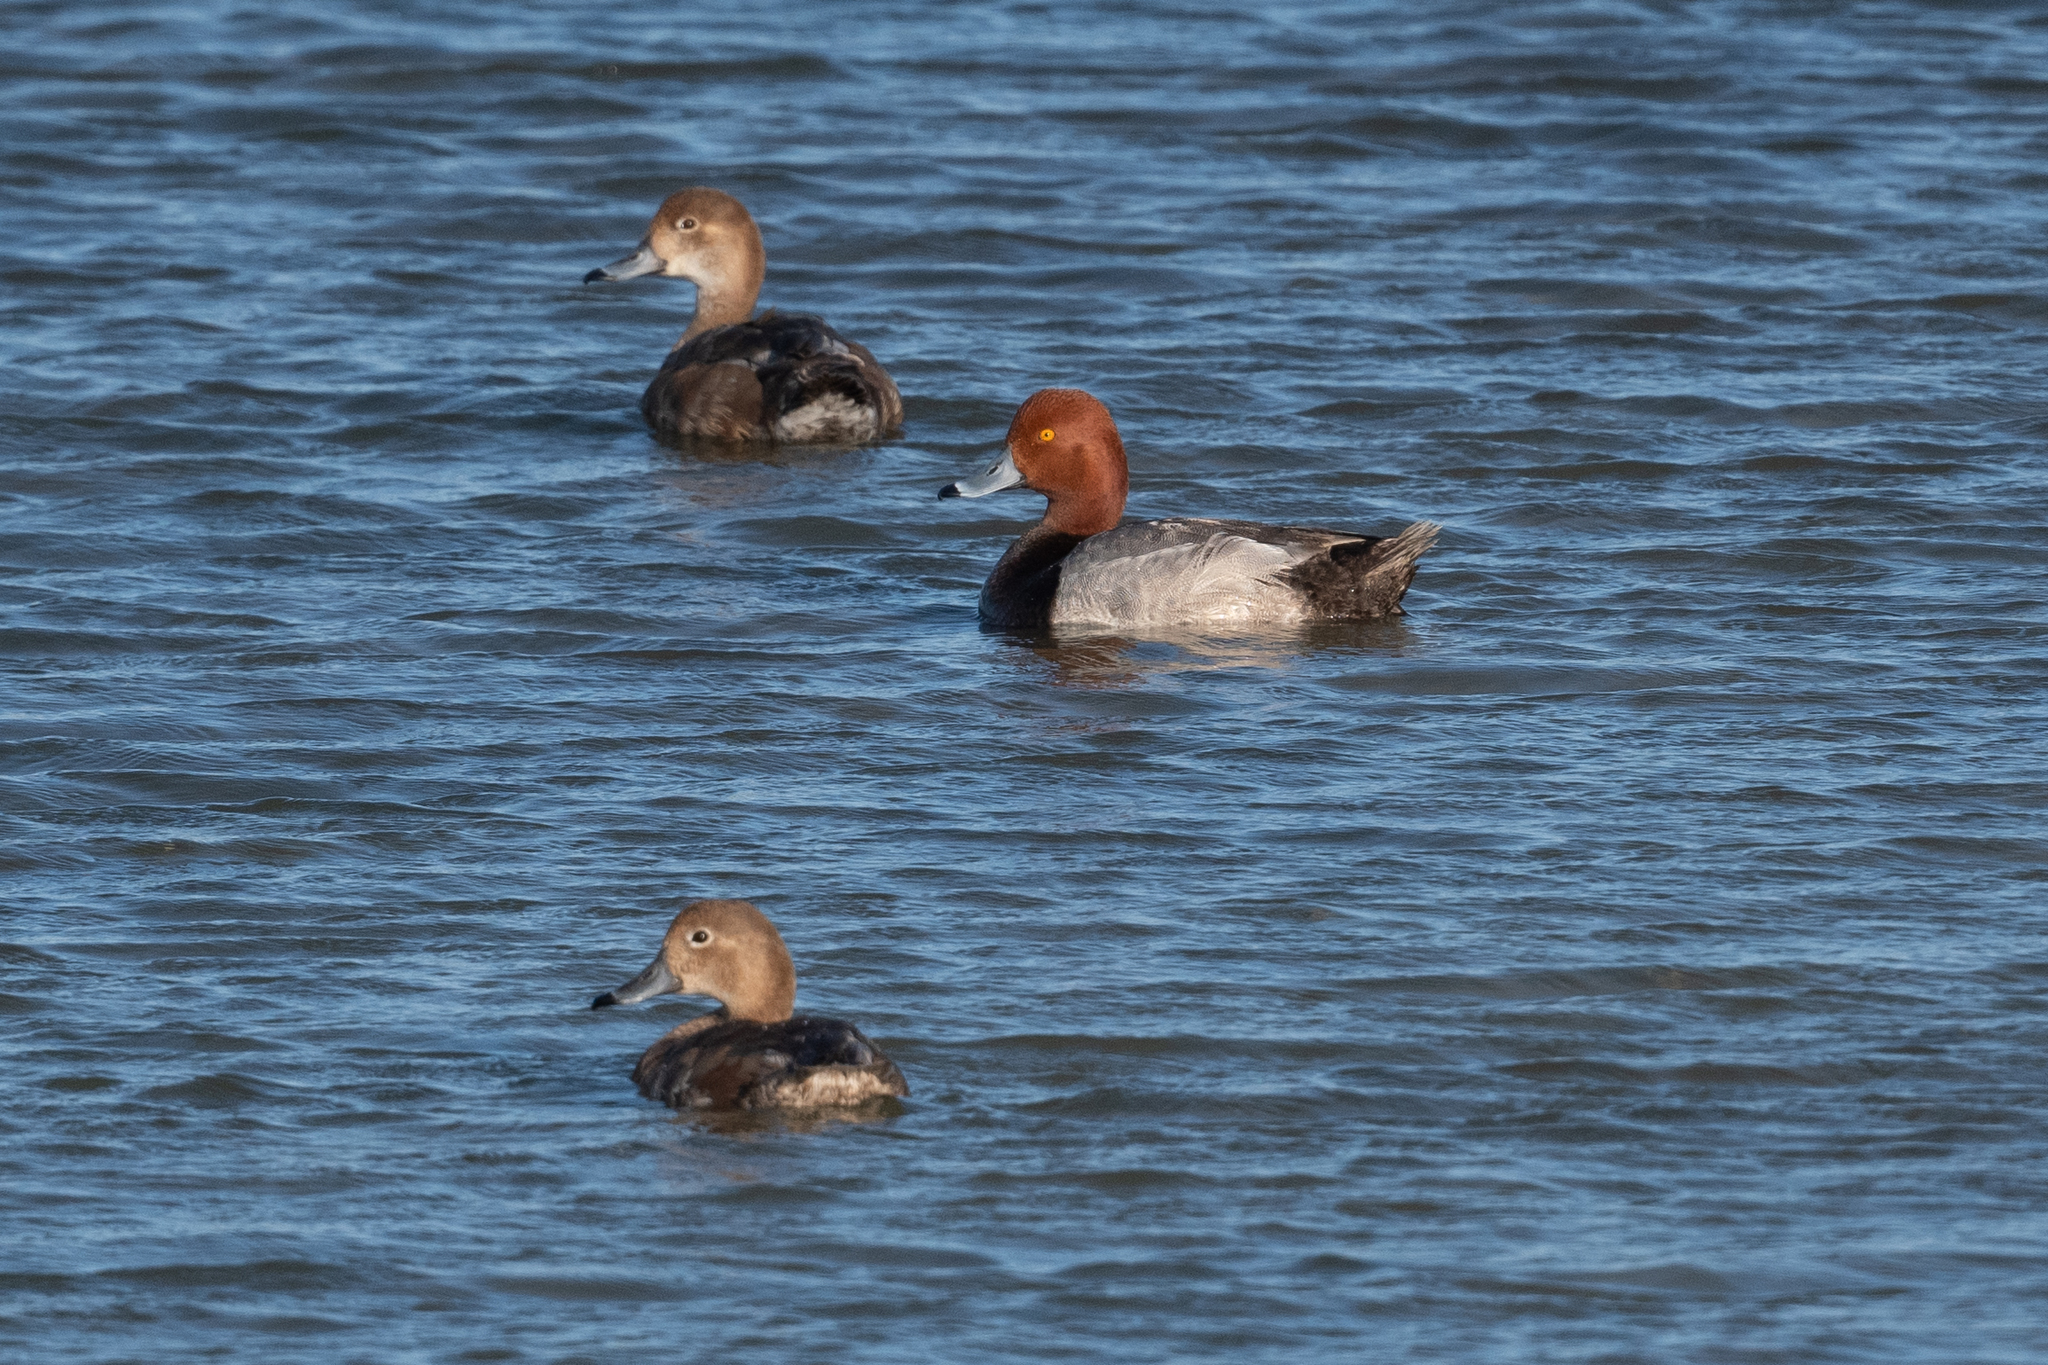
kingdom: Animalia
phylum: Chordata
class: Aves
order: Anseriformes
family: Anatidae
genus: Aythya
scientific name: Aythya americana
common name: Redhead
